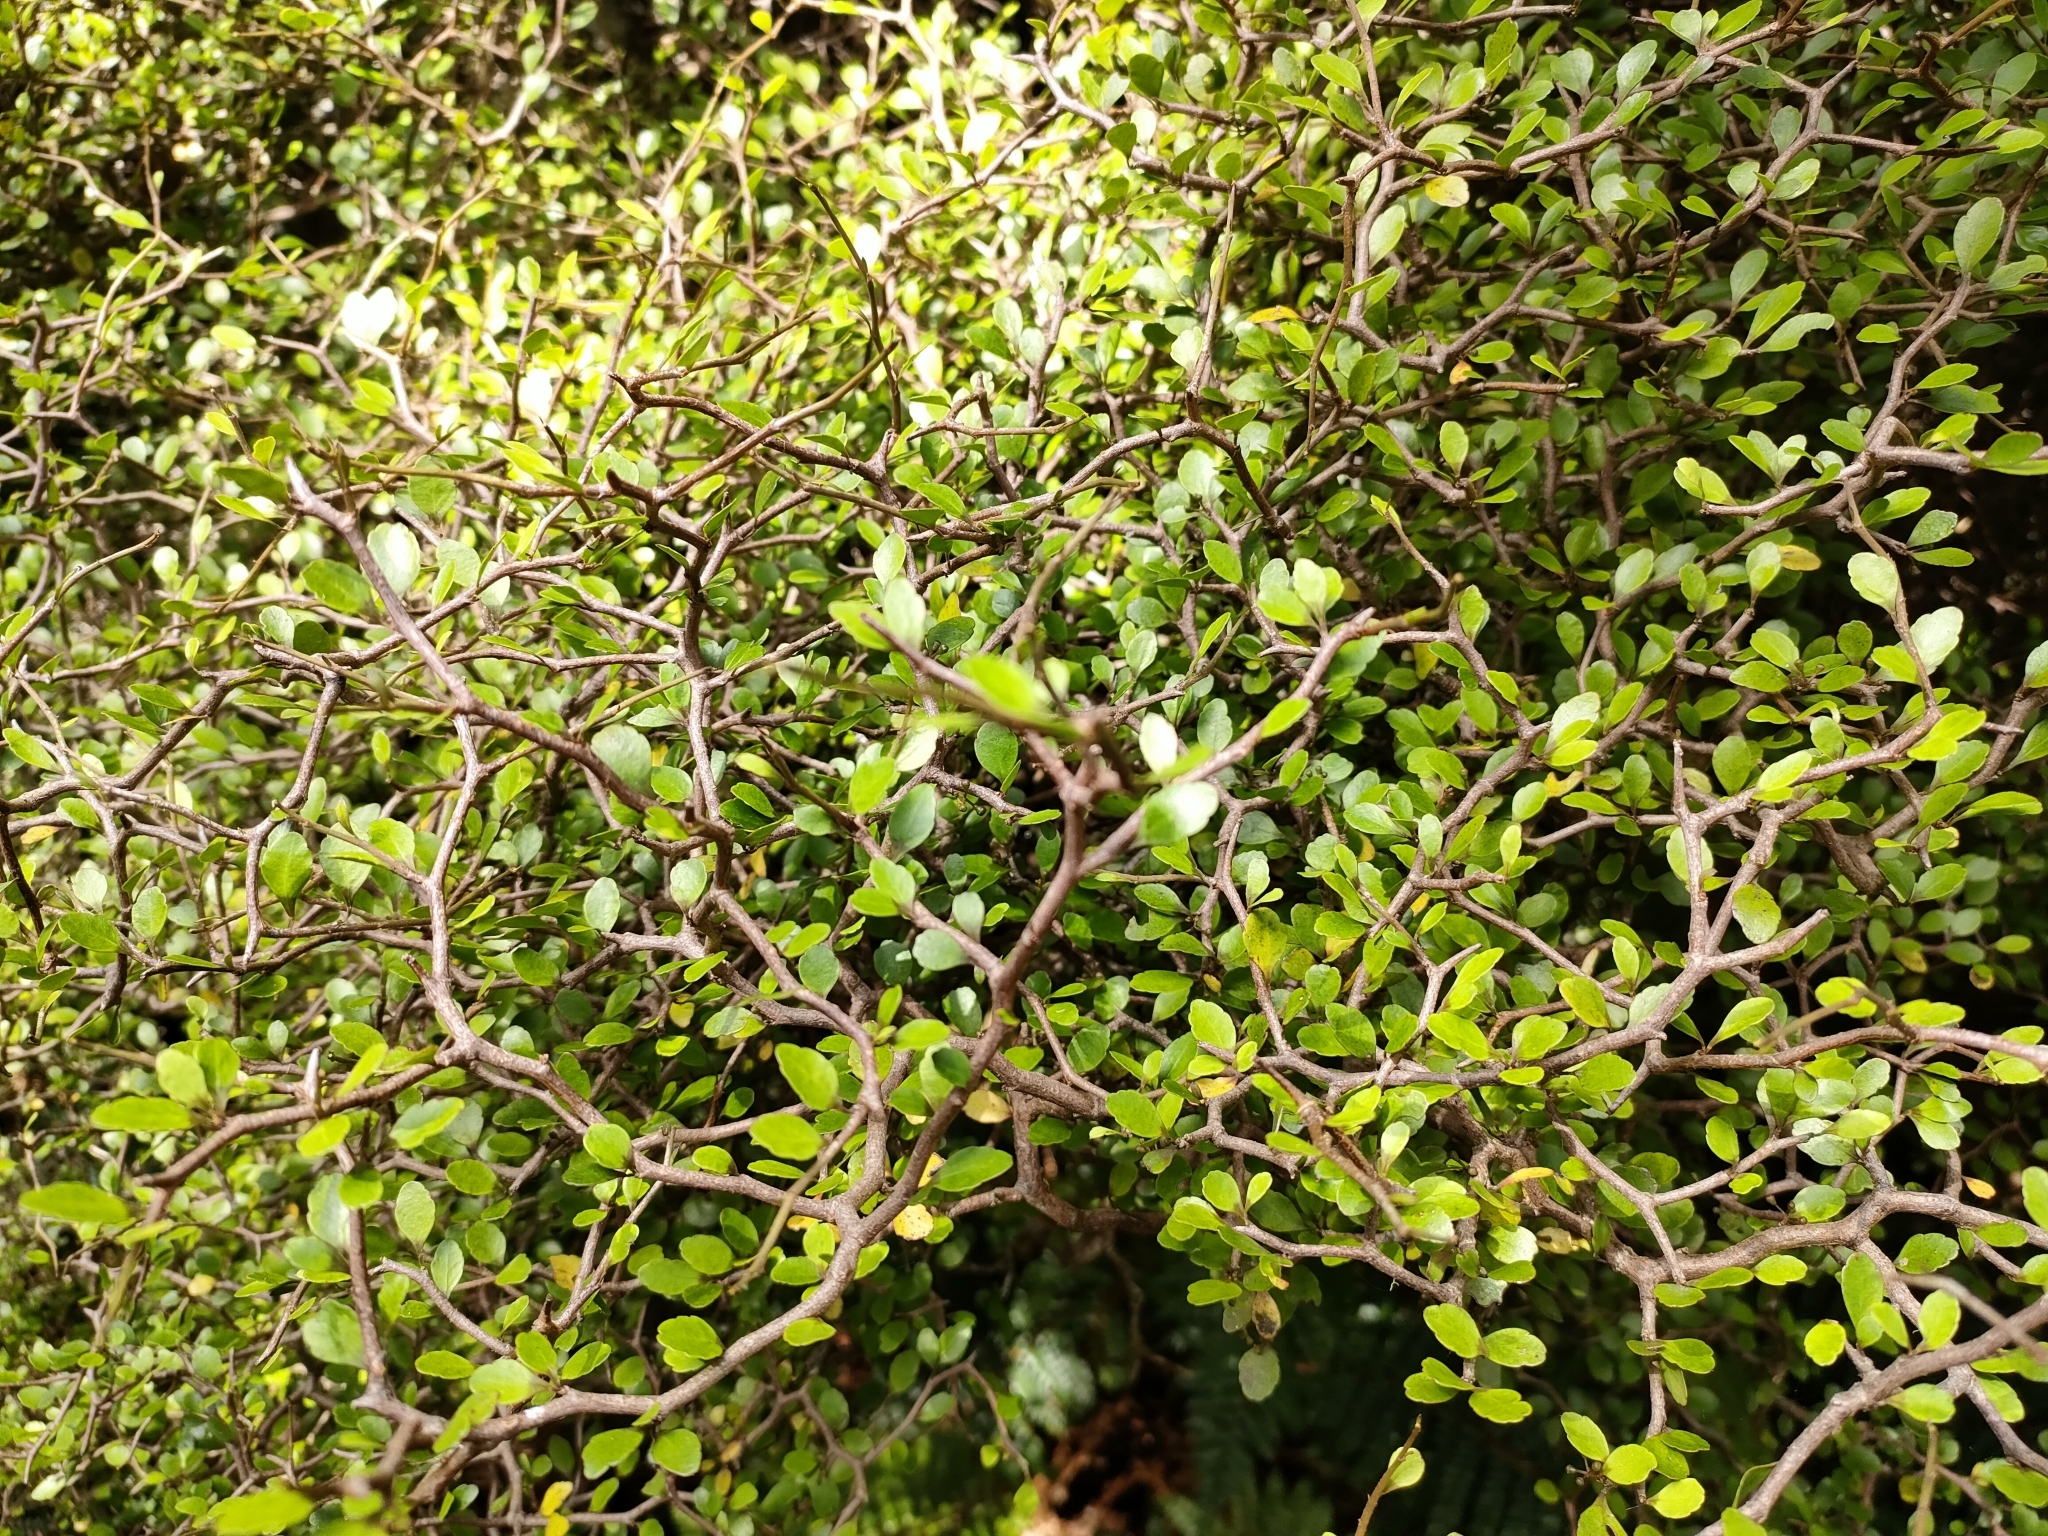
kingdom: Plantae
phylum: Tracheophyta
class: Magnoliopsida
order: Apiales
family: Araliaceae
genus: Raukaua
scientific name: Raukaua anomalus
